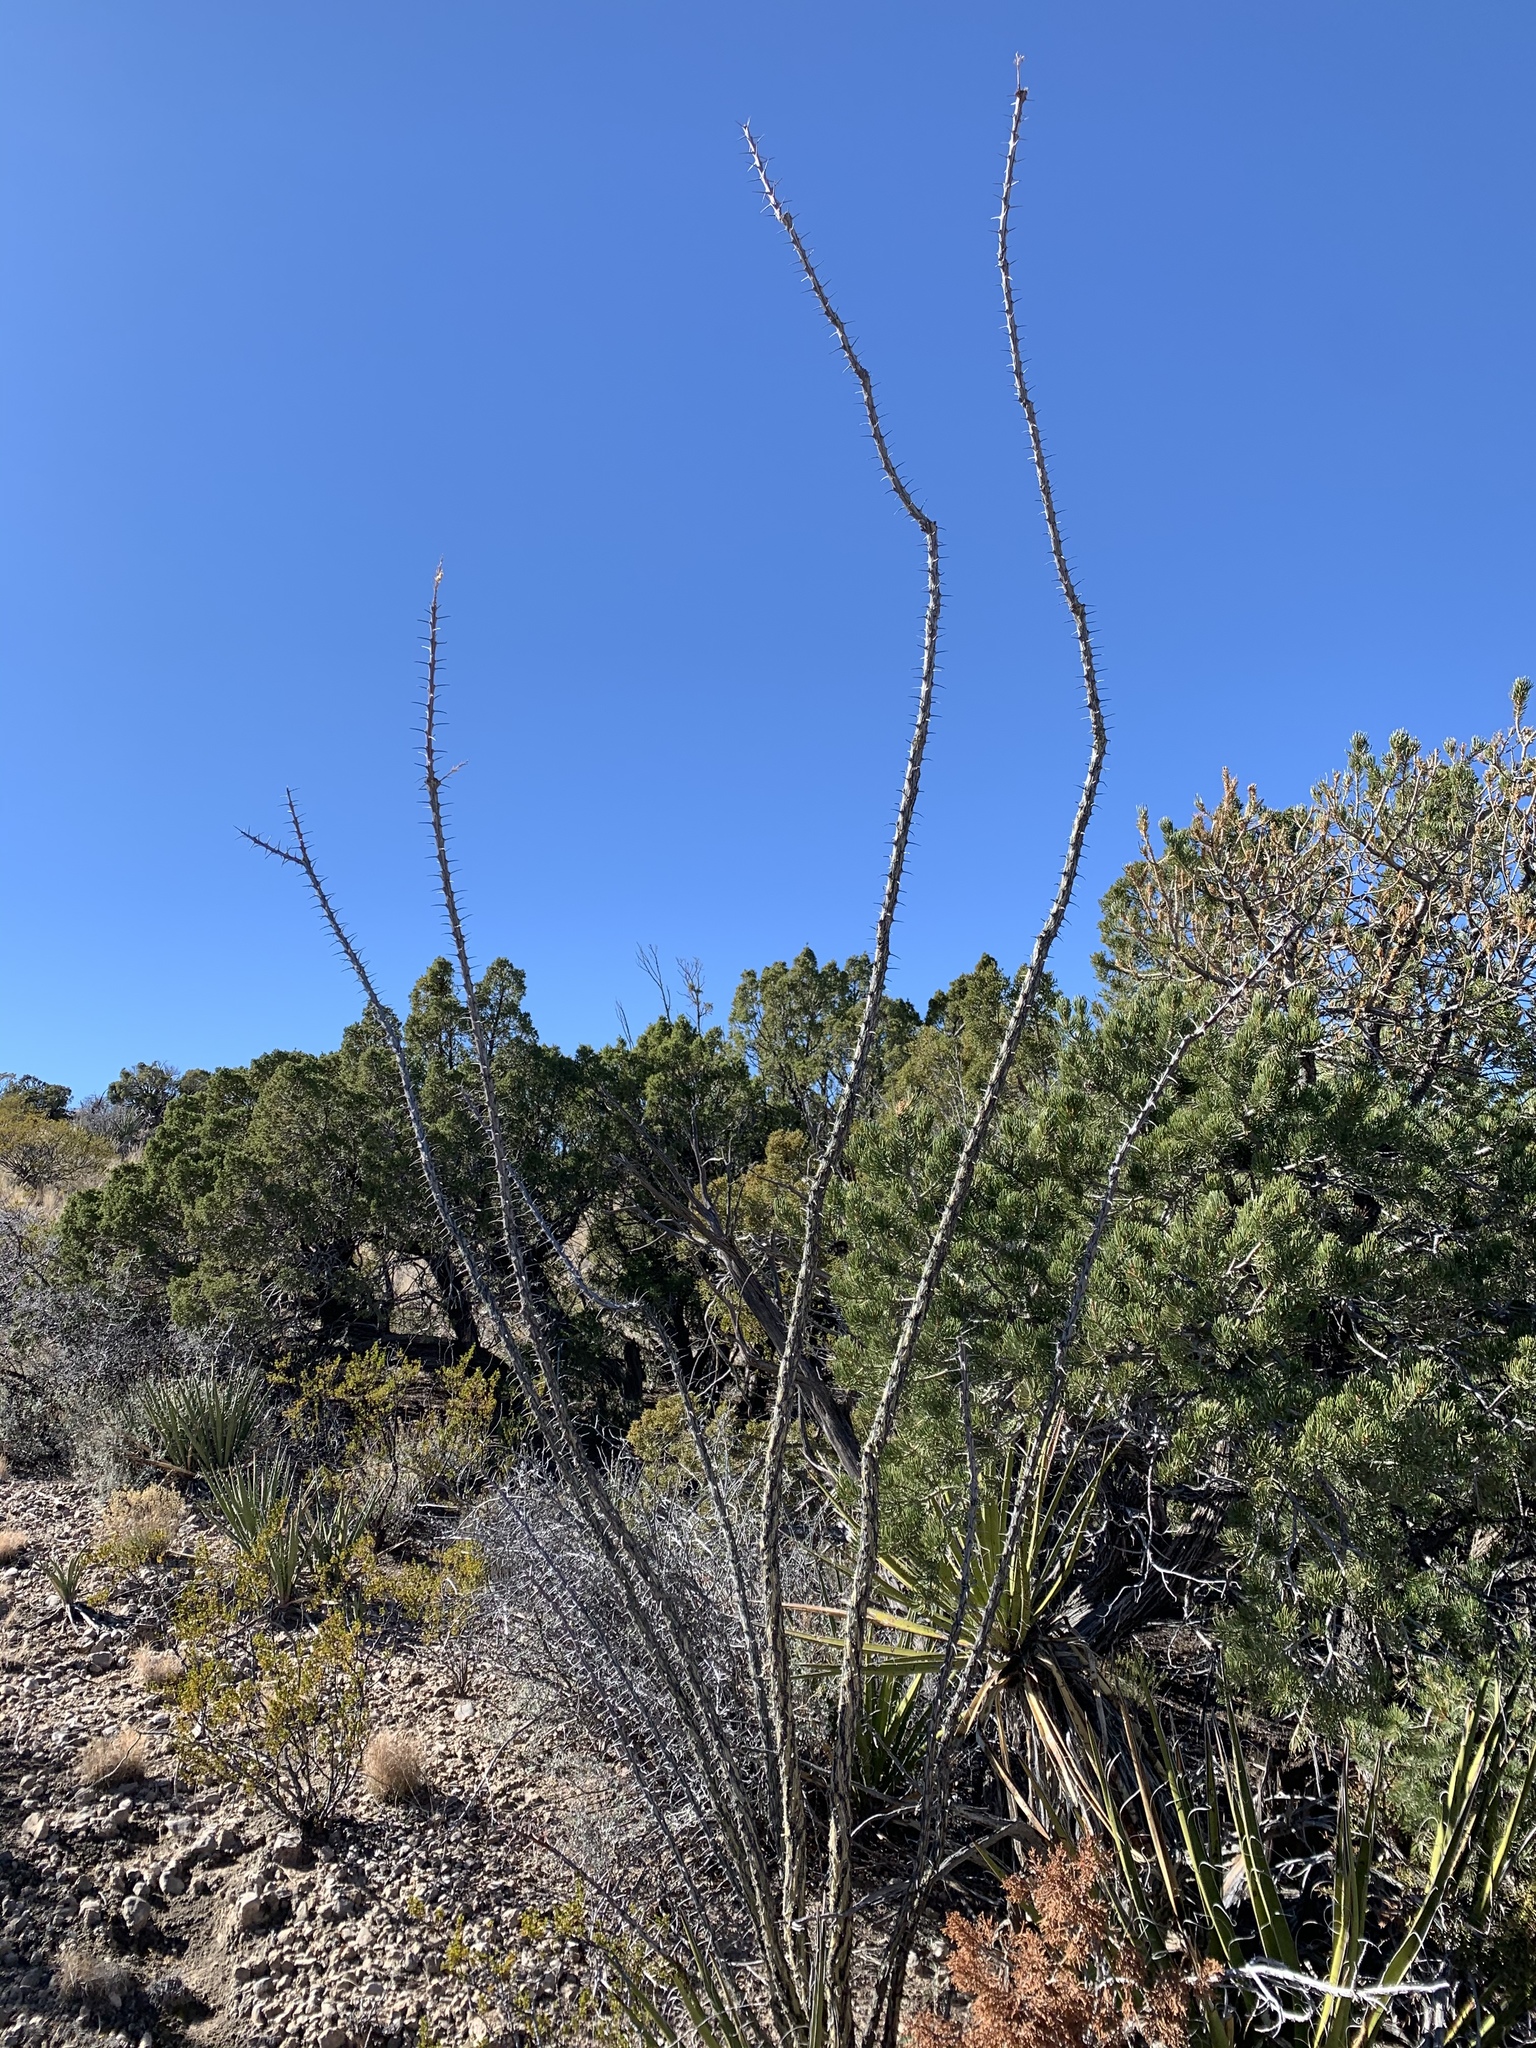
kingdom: Plantae
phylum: Tracheophyta
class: Magnoliopsida
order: Ericales
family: Fouquieriaceae
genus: Fouquieria
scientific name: Fouquieria splendens
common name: Vine-cactus
